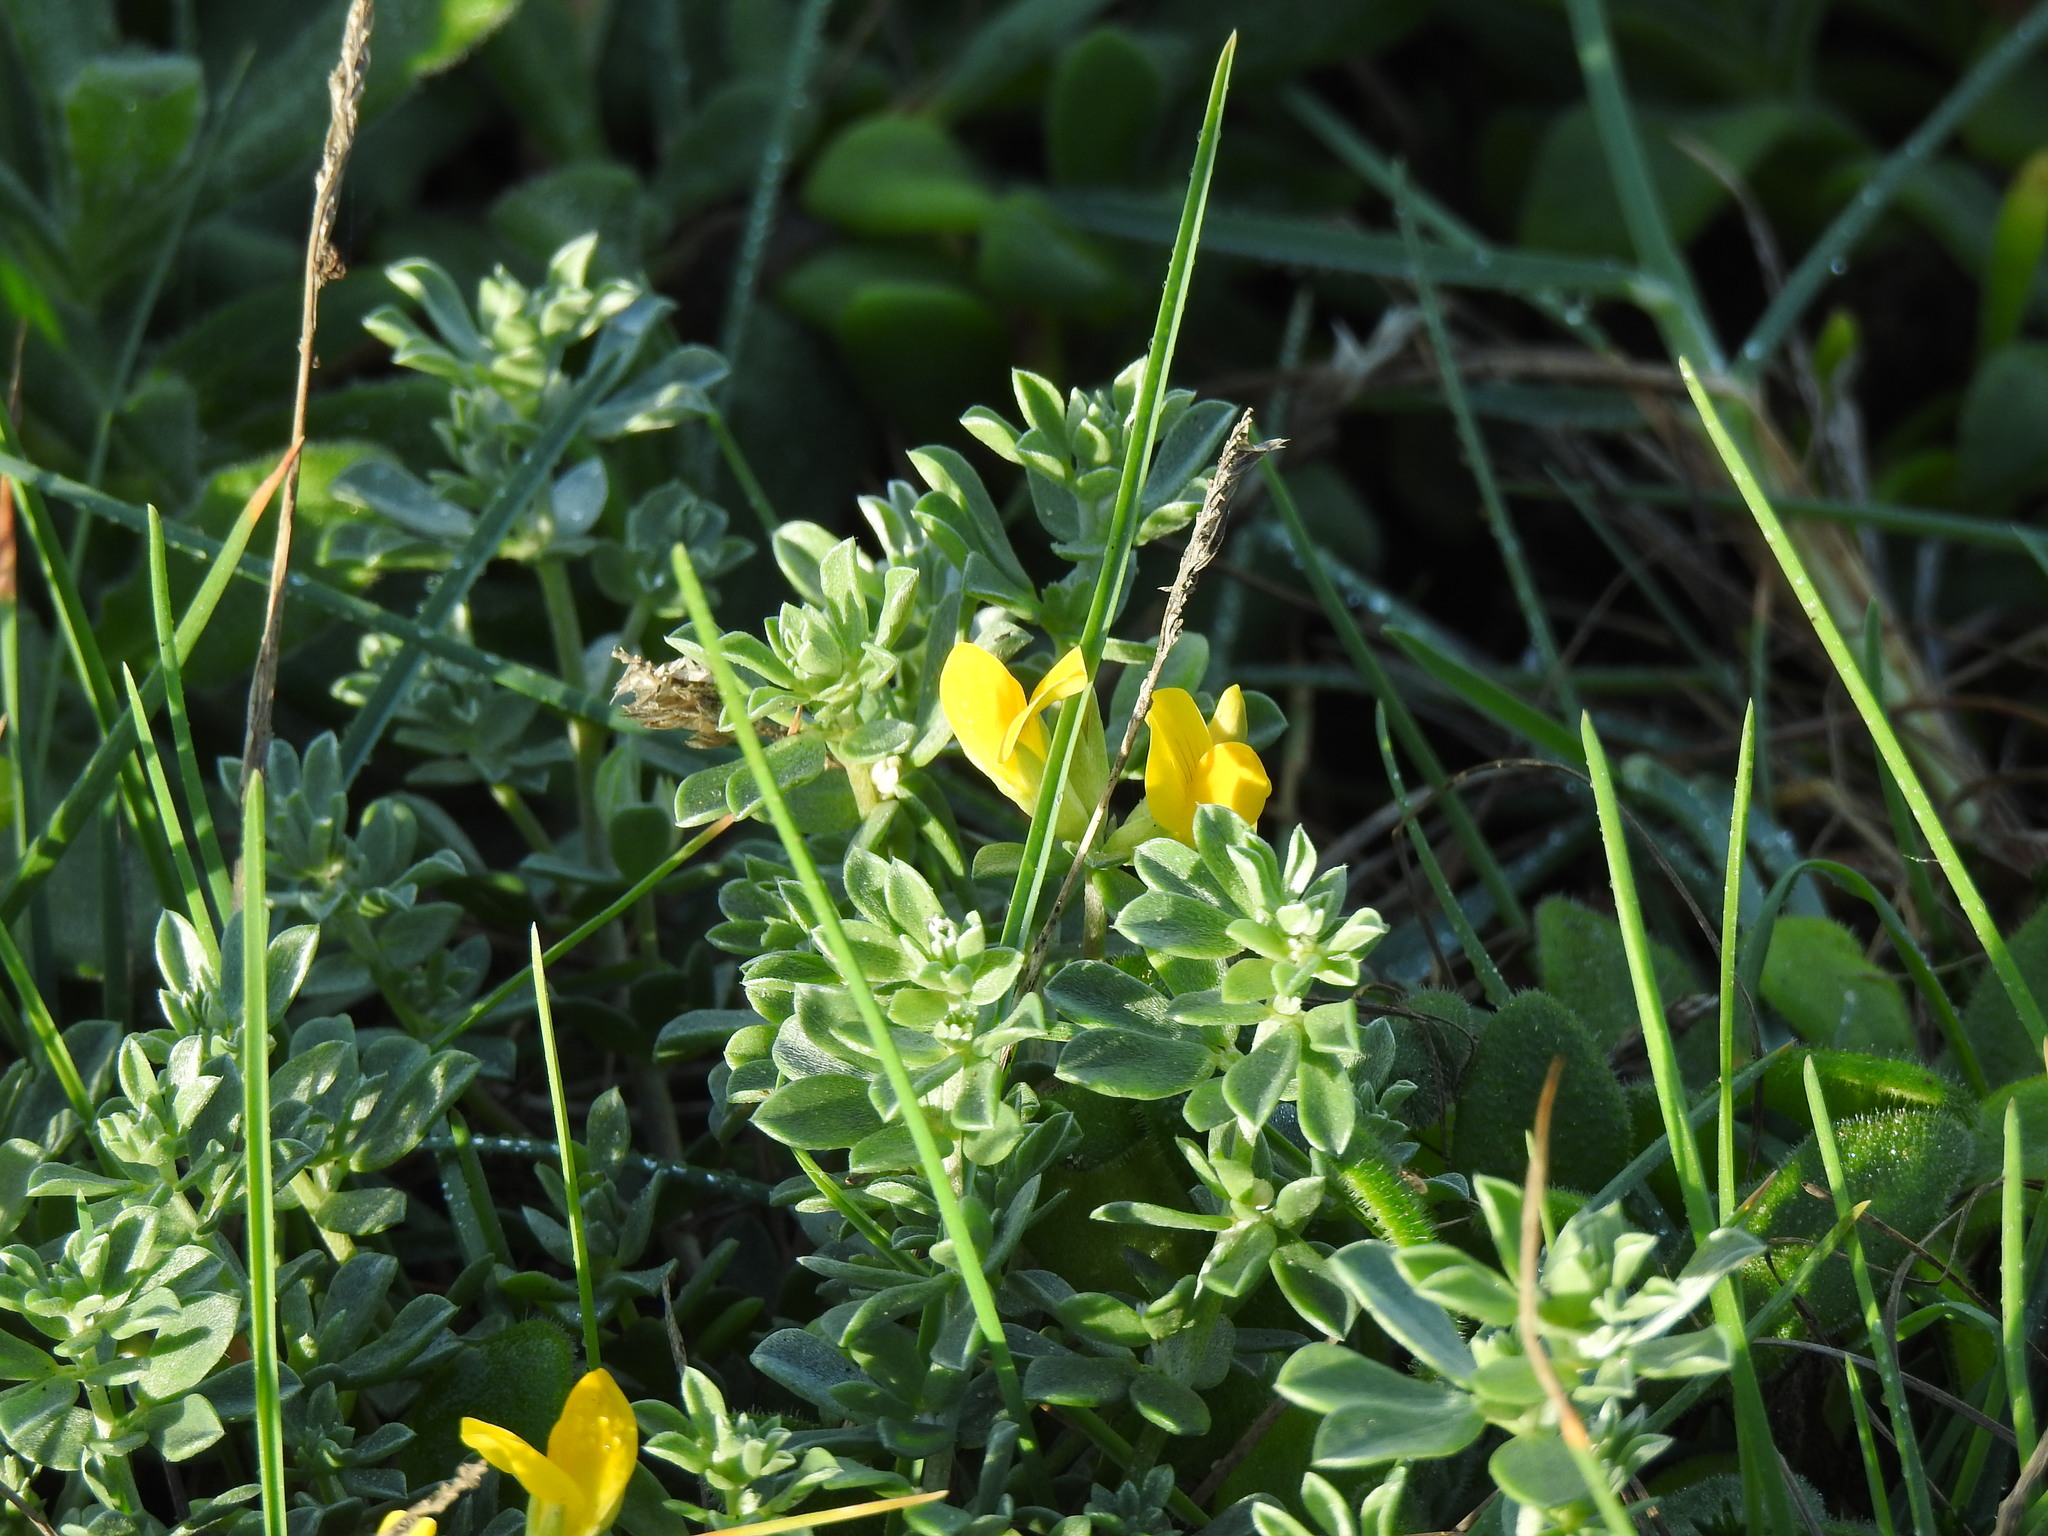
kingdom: Plantae
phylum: Tracheophyta
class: Magnoliopsida
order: Fabales
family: Fabaceae
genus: Lotus
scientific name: Lotus creticus
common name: Cretan bird's-foot trefoil
